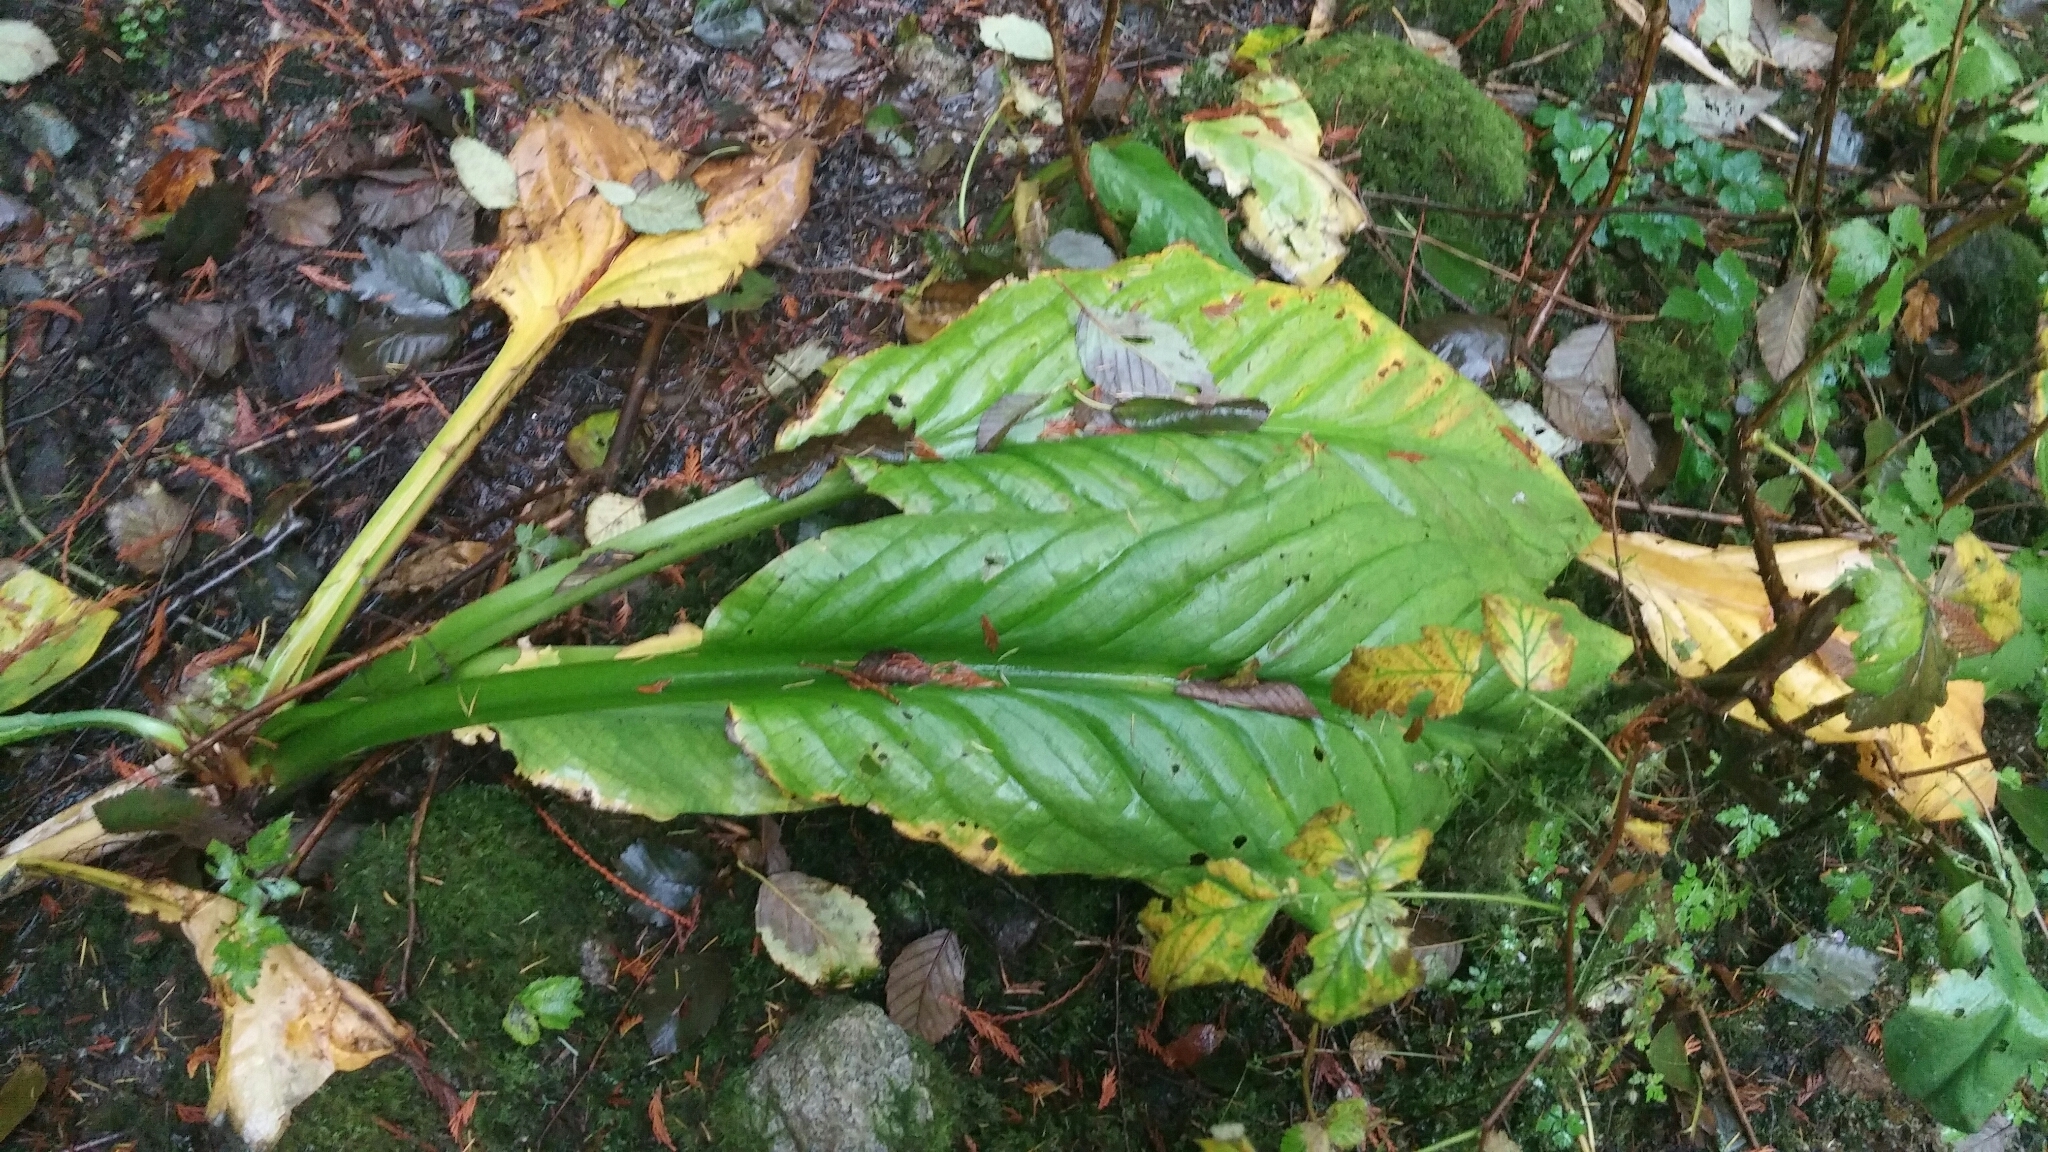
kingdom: Plantae
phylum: Tracheophyta
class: Liliopsida
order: Alismatales
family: Araceae
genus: Lysichiton
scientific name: Lysichiton americanus
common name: American skunk cabbage
